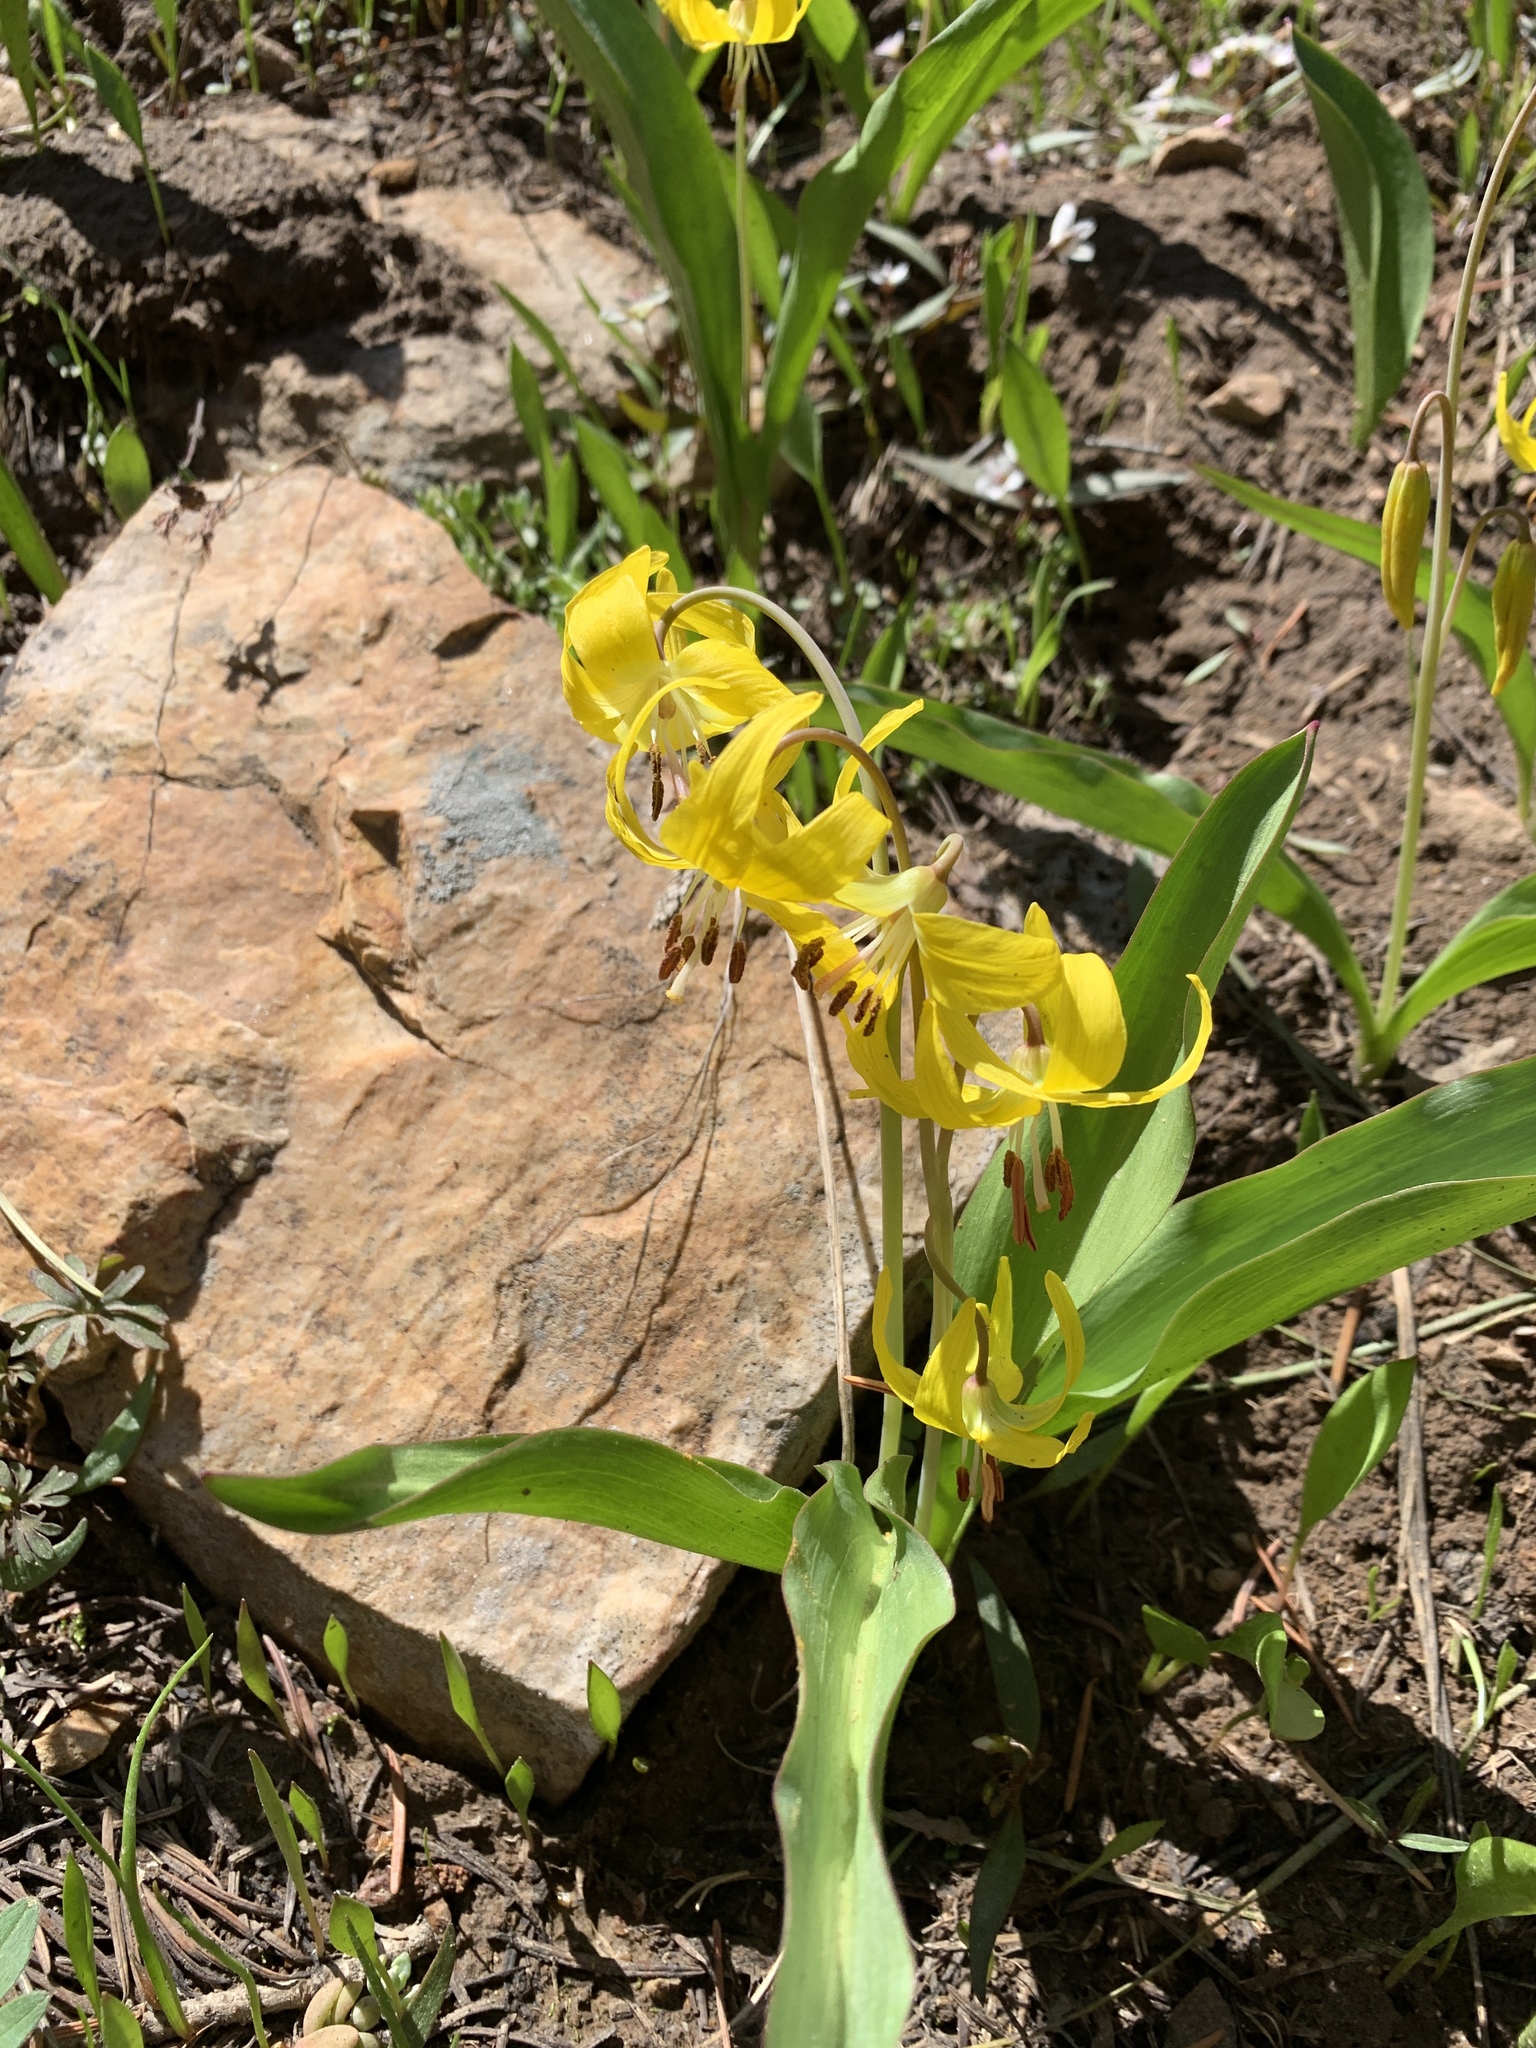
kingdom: Plantae
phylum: Tracheophyta
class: Liliopsida
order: Liliales
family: Liliaceae
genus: Erythronium
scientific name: Erythronium grandiflorum
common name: Avalanche-lily
